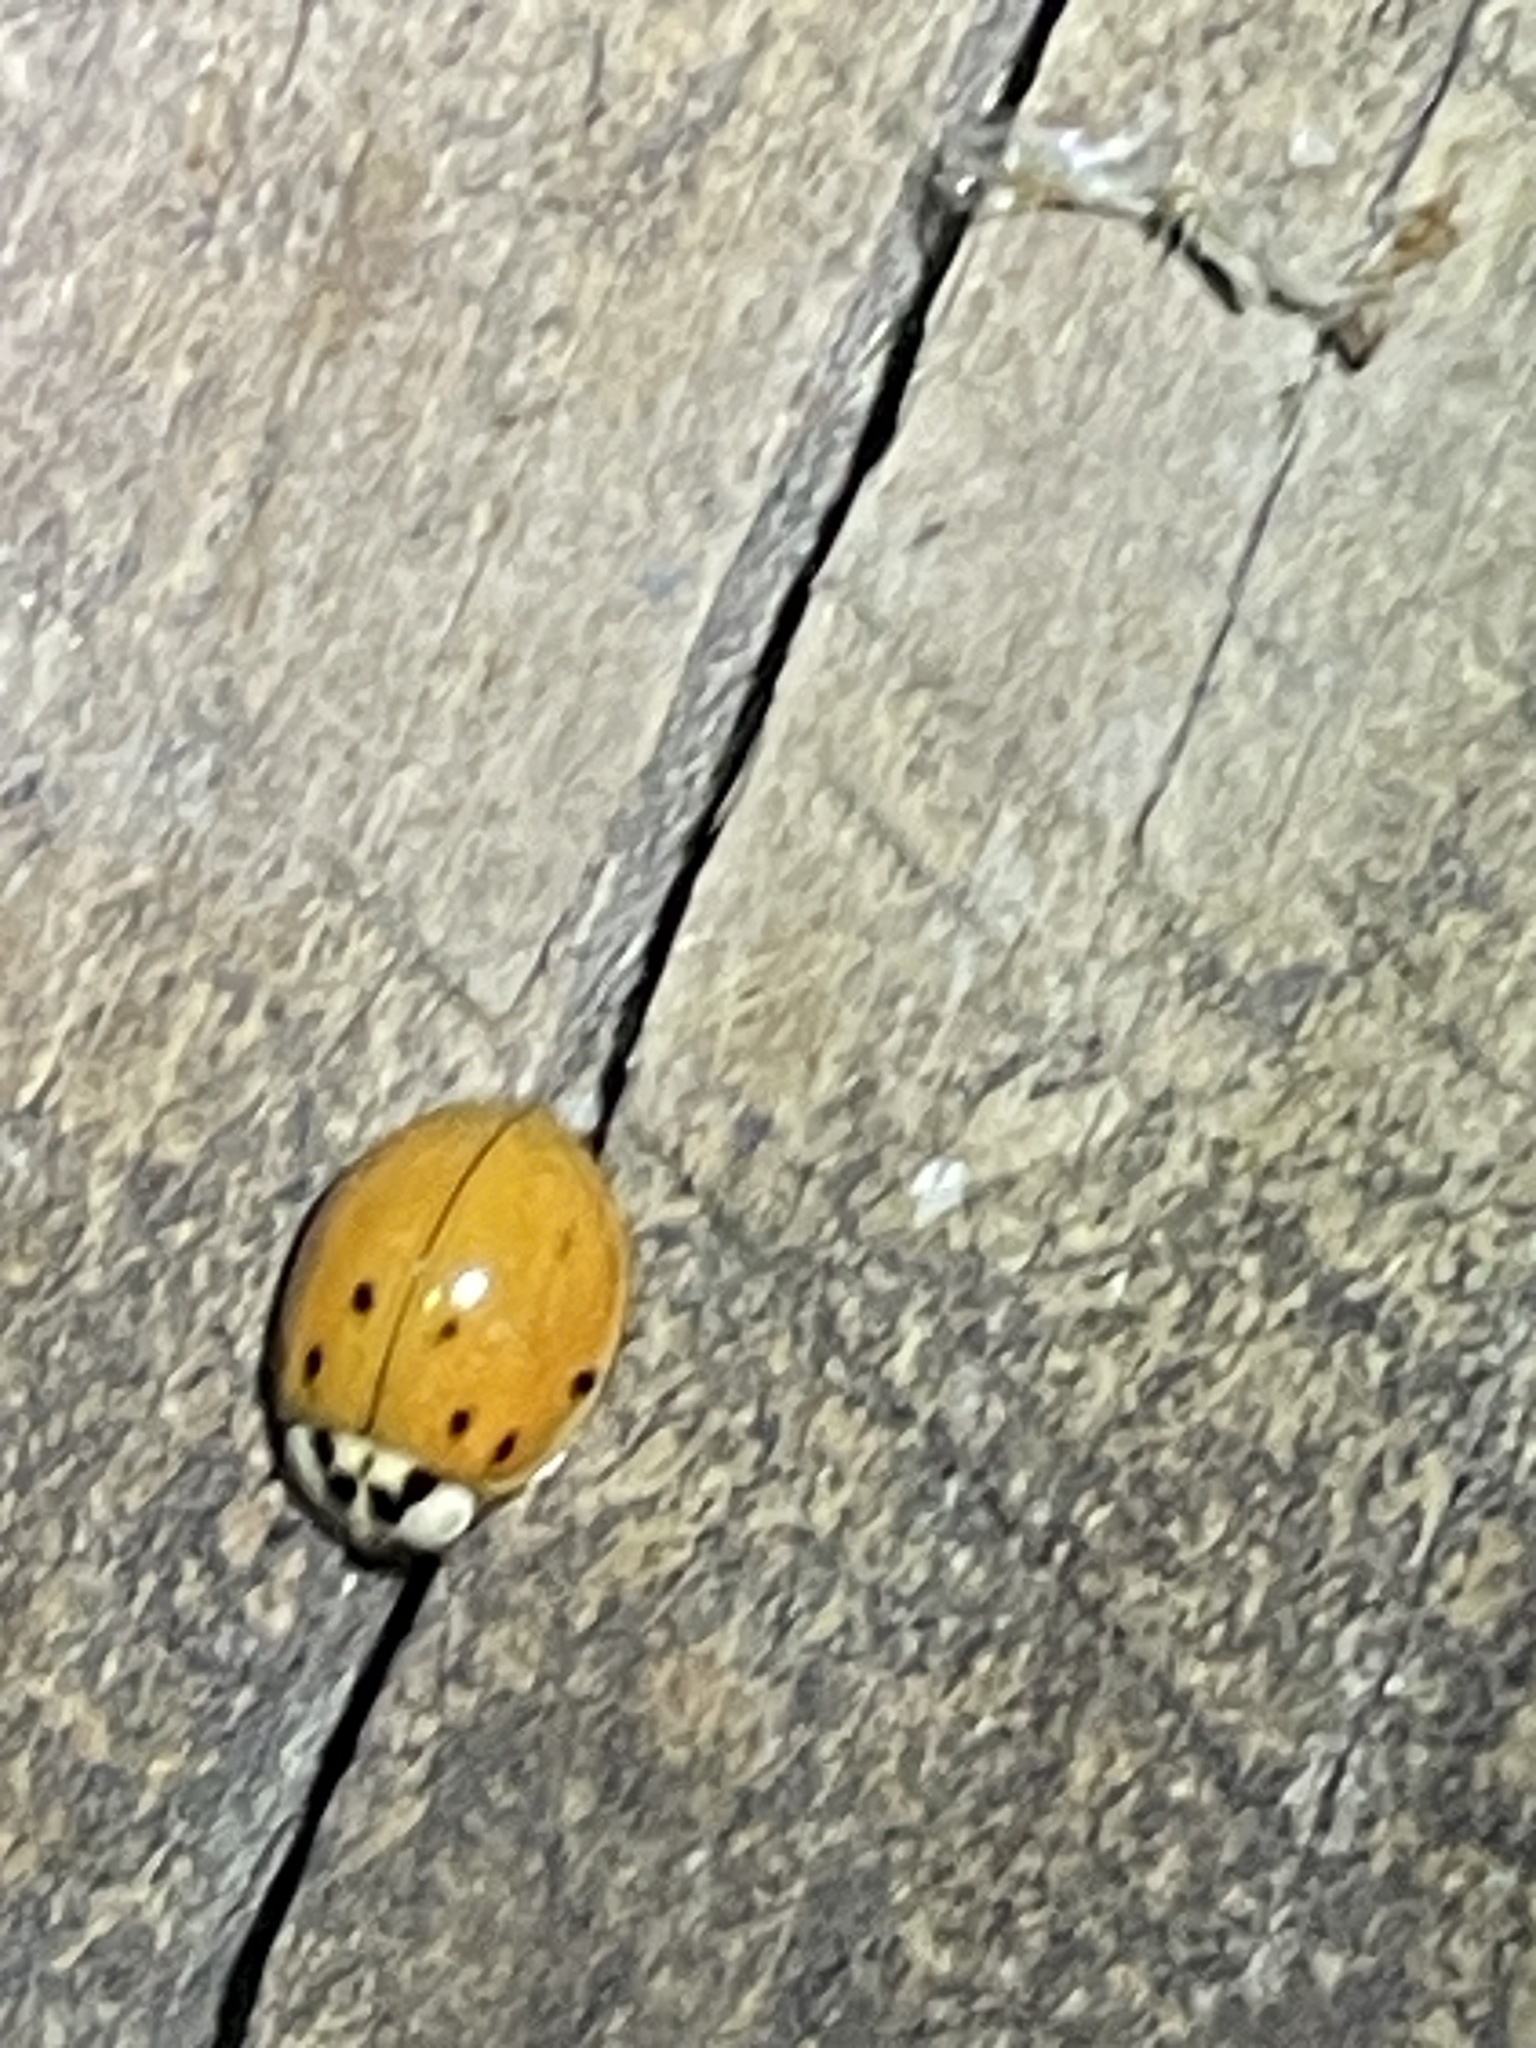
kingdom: Animalia
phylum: Arthropoda
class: Insecta
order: Coleoptera
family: Coccinellidae
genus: Harmonia
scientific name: Harmonia axyridis
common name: Harlequin ladybird
